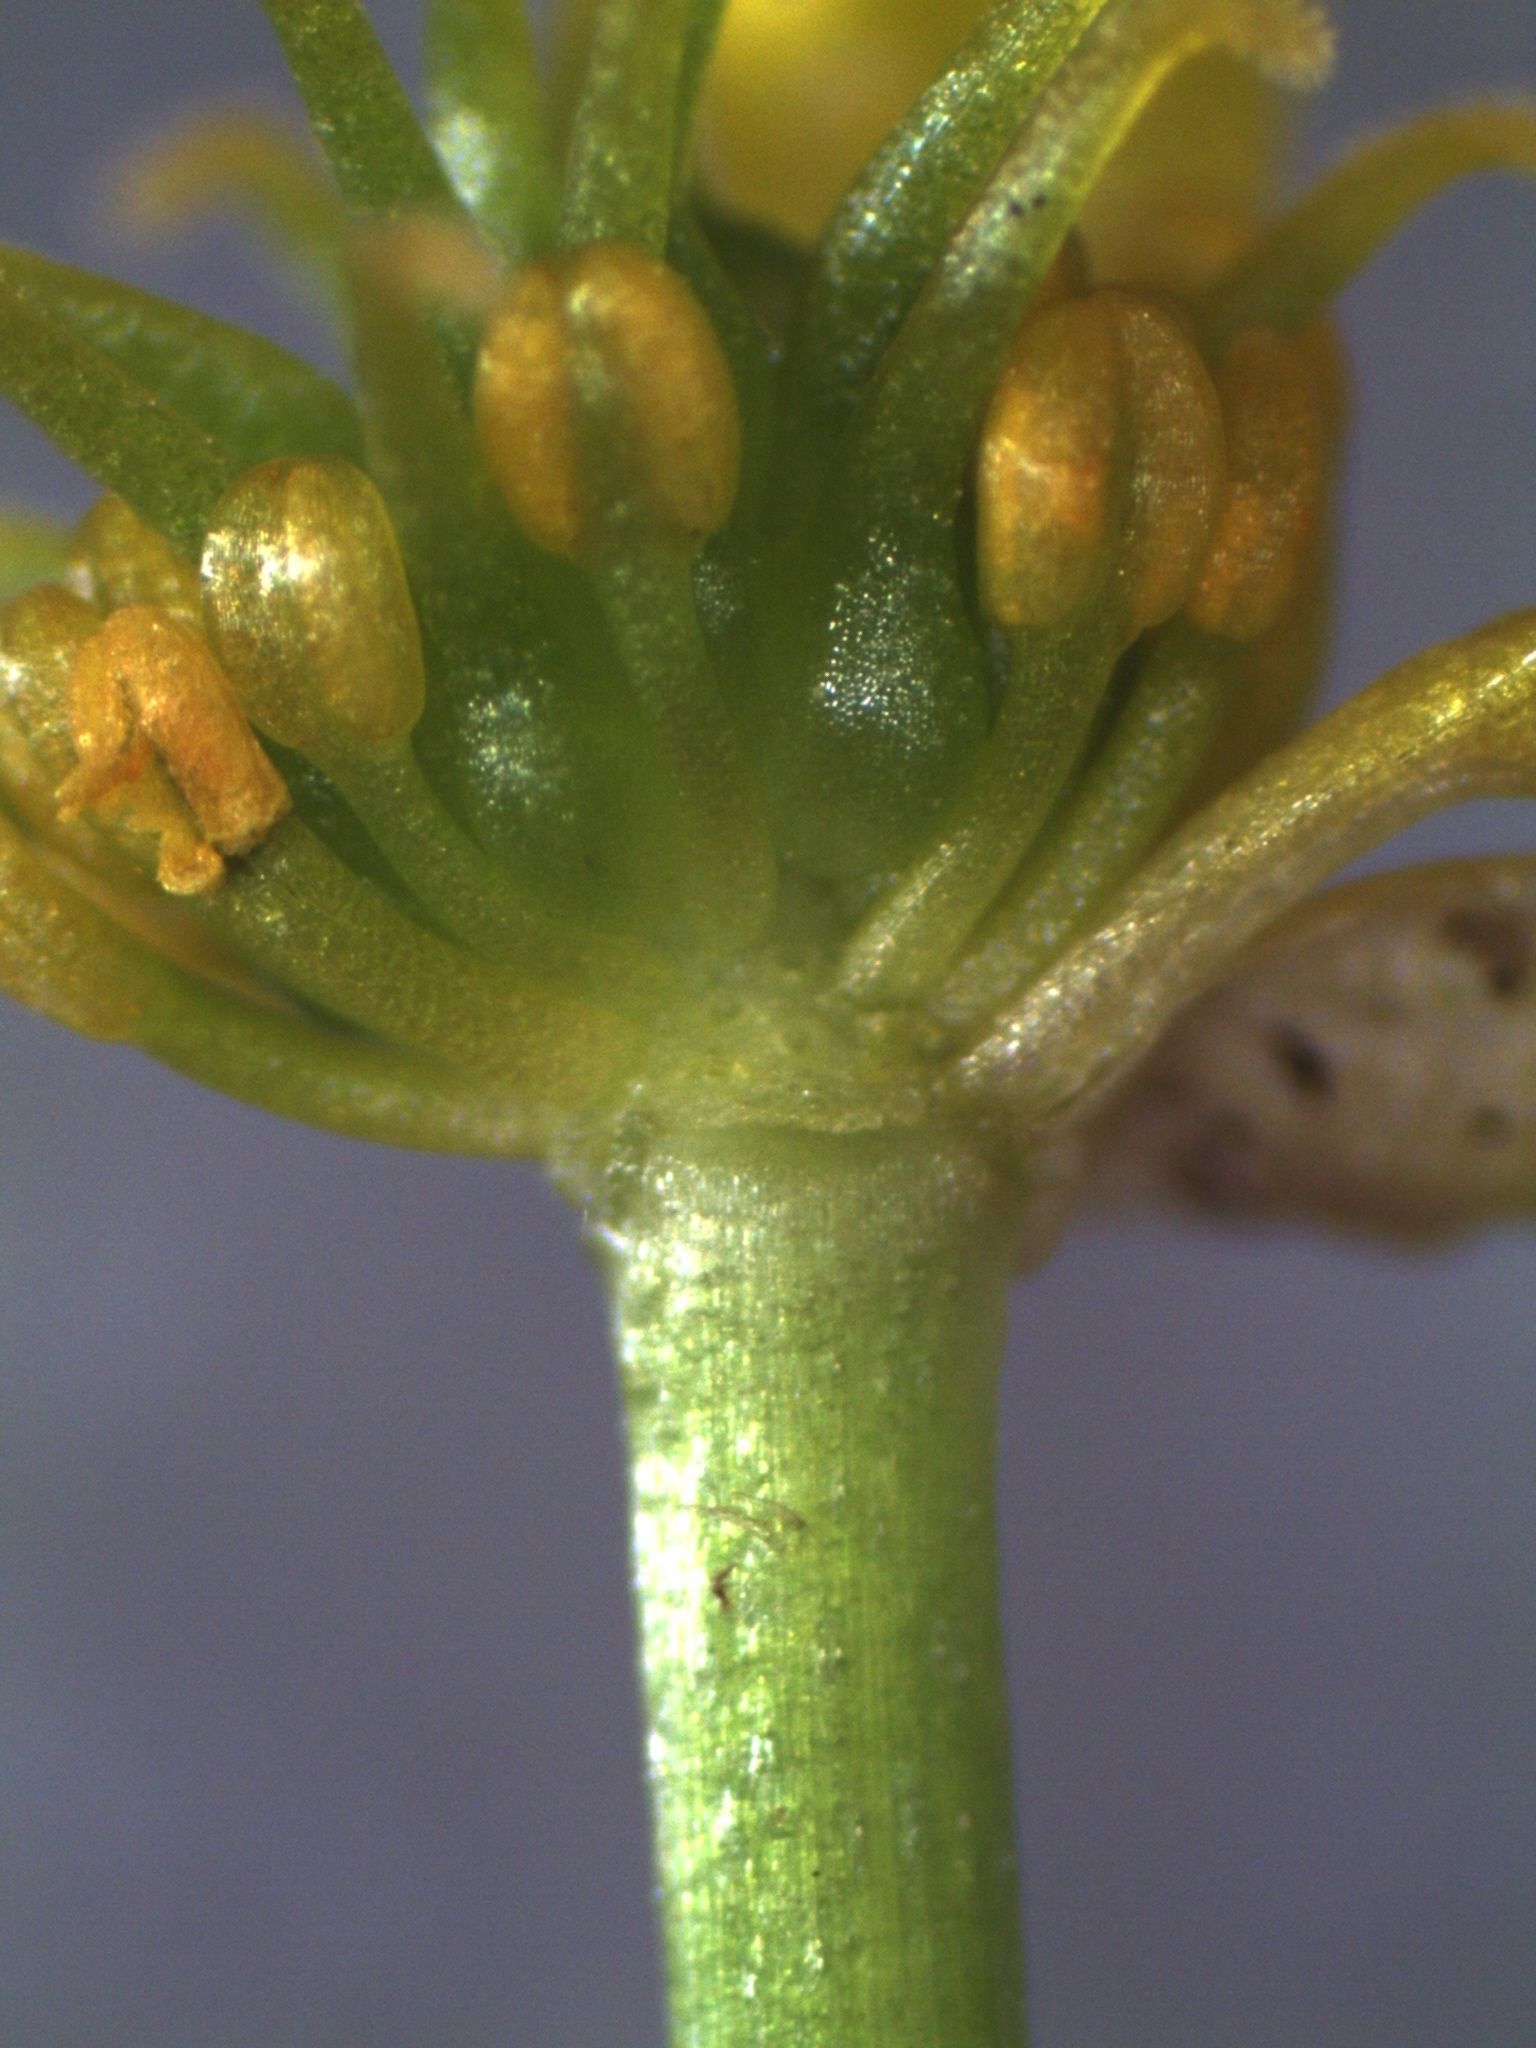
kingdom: Plantae
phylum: Tracheophyta
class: Magnoliopsida
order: Ranunculales
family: Ranunculaceae
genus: Ranunculus
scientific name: Ranunculus glabrifolius
